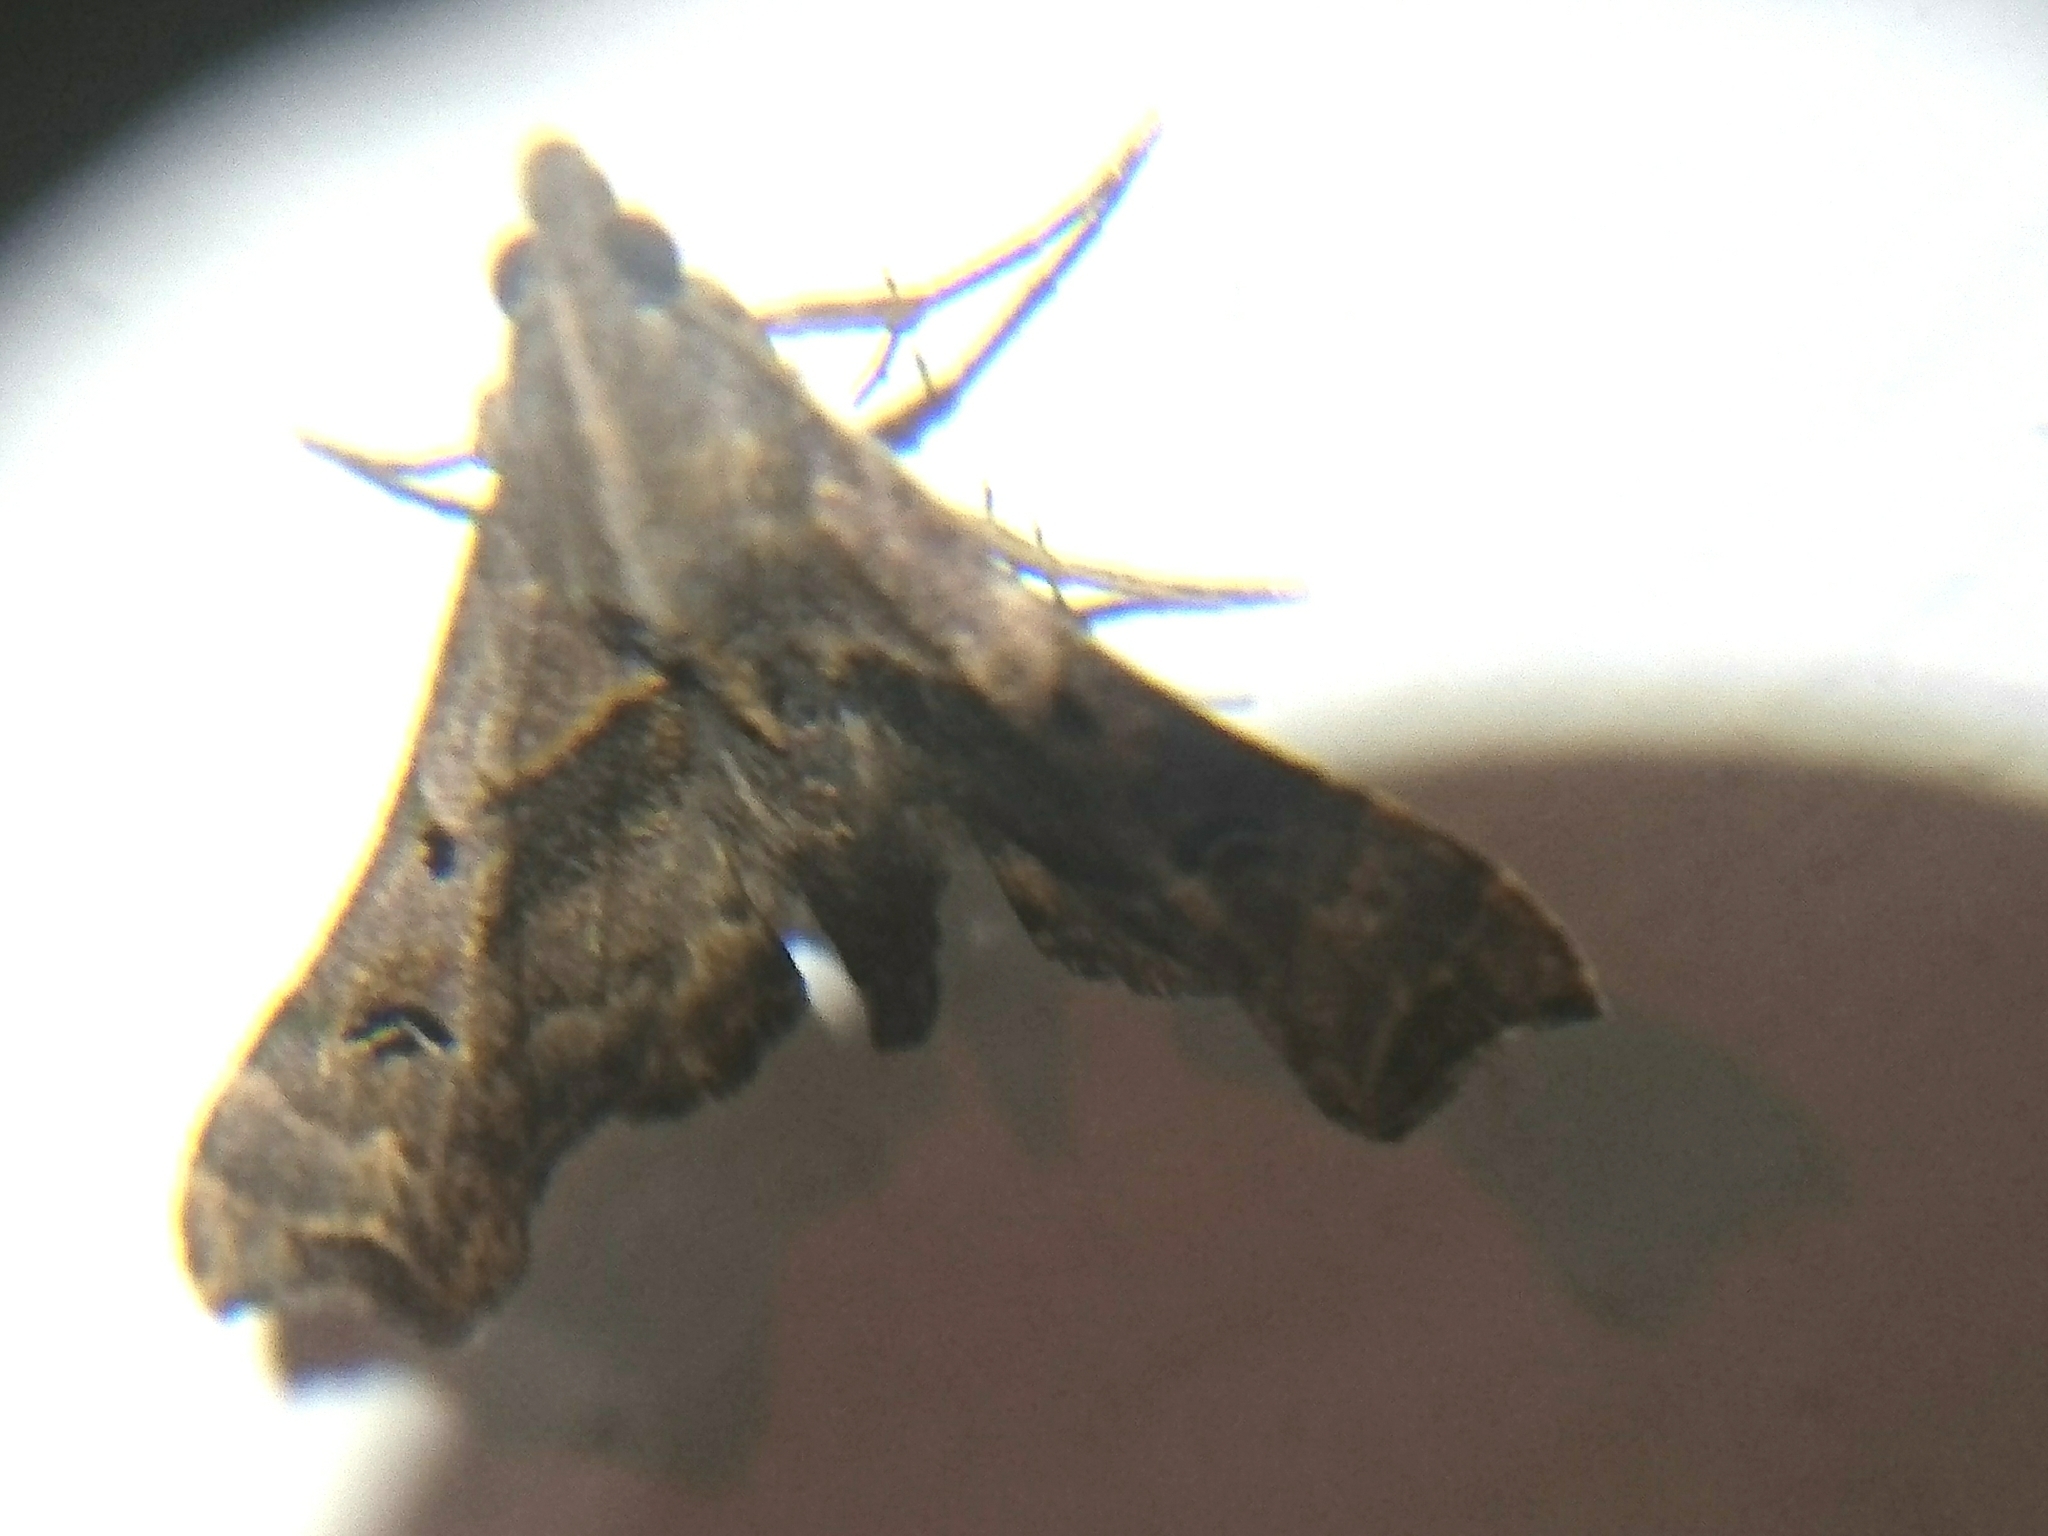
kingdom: Animalia
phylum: Arthropoda
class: Insecta
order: Lepidoptera
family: Erebidae
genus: Palthis
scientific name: Palthis asopialis
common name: Faint-spotted palthis moth
